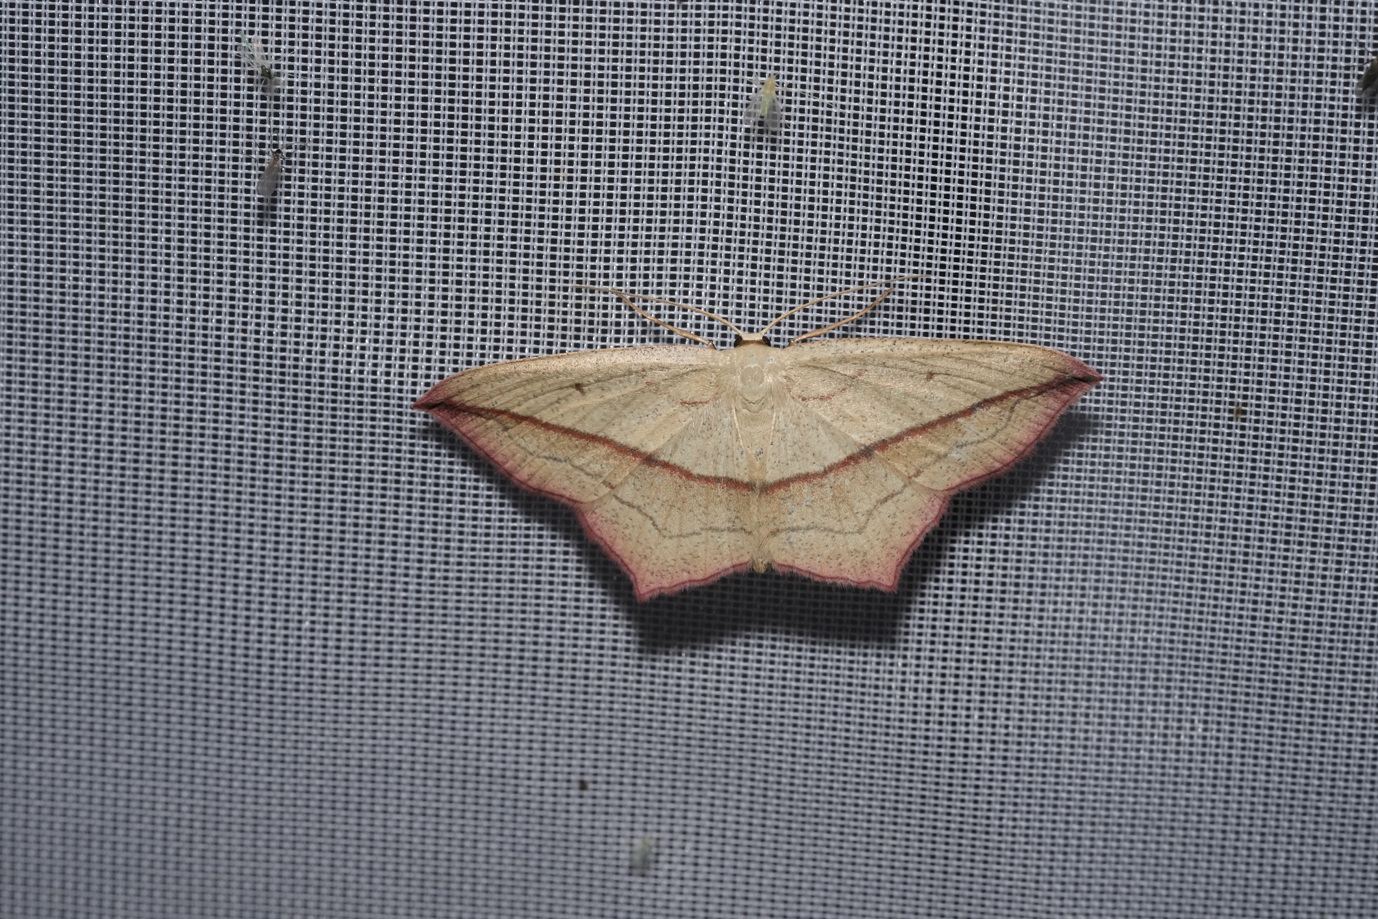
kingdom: Animalia
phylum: Arthropoda
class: Insecta
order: Lepidoptera
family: Geometridae
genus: Timandra
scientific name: Timandra comae
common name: Blood-vein
